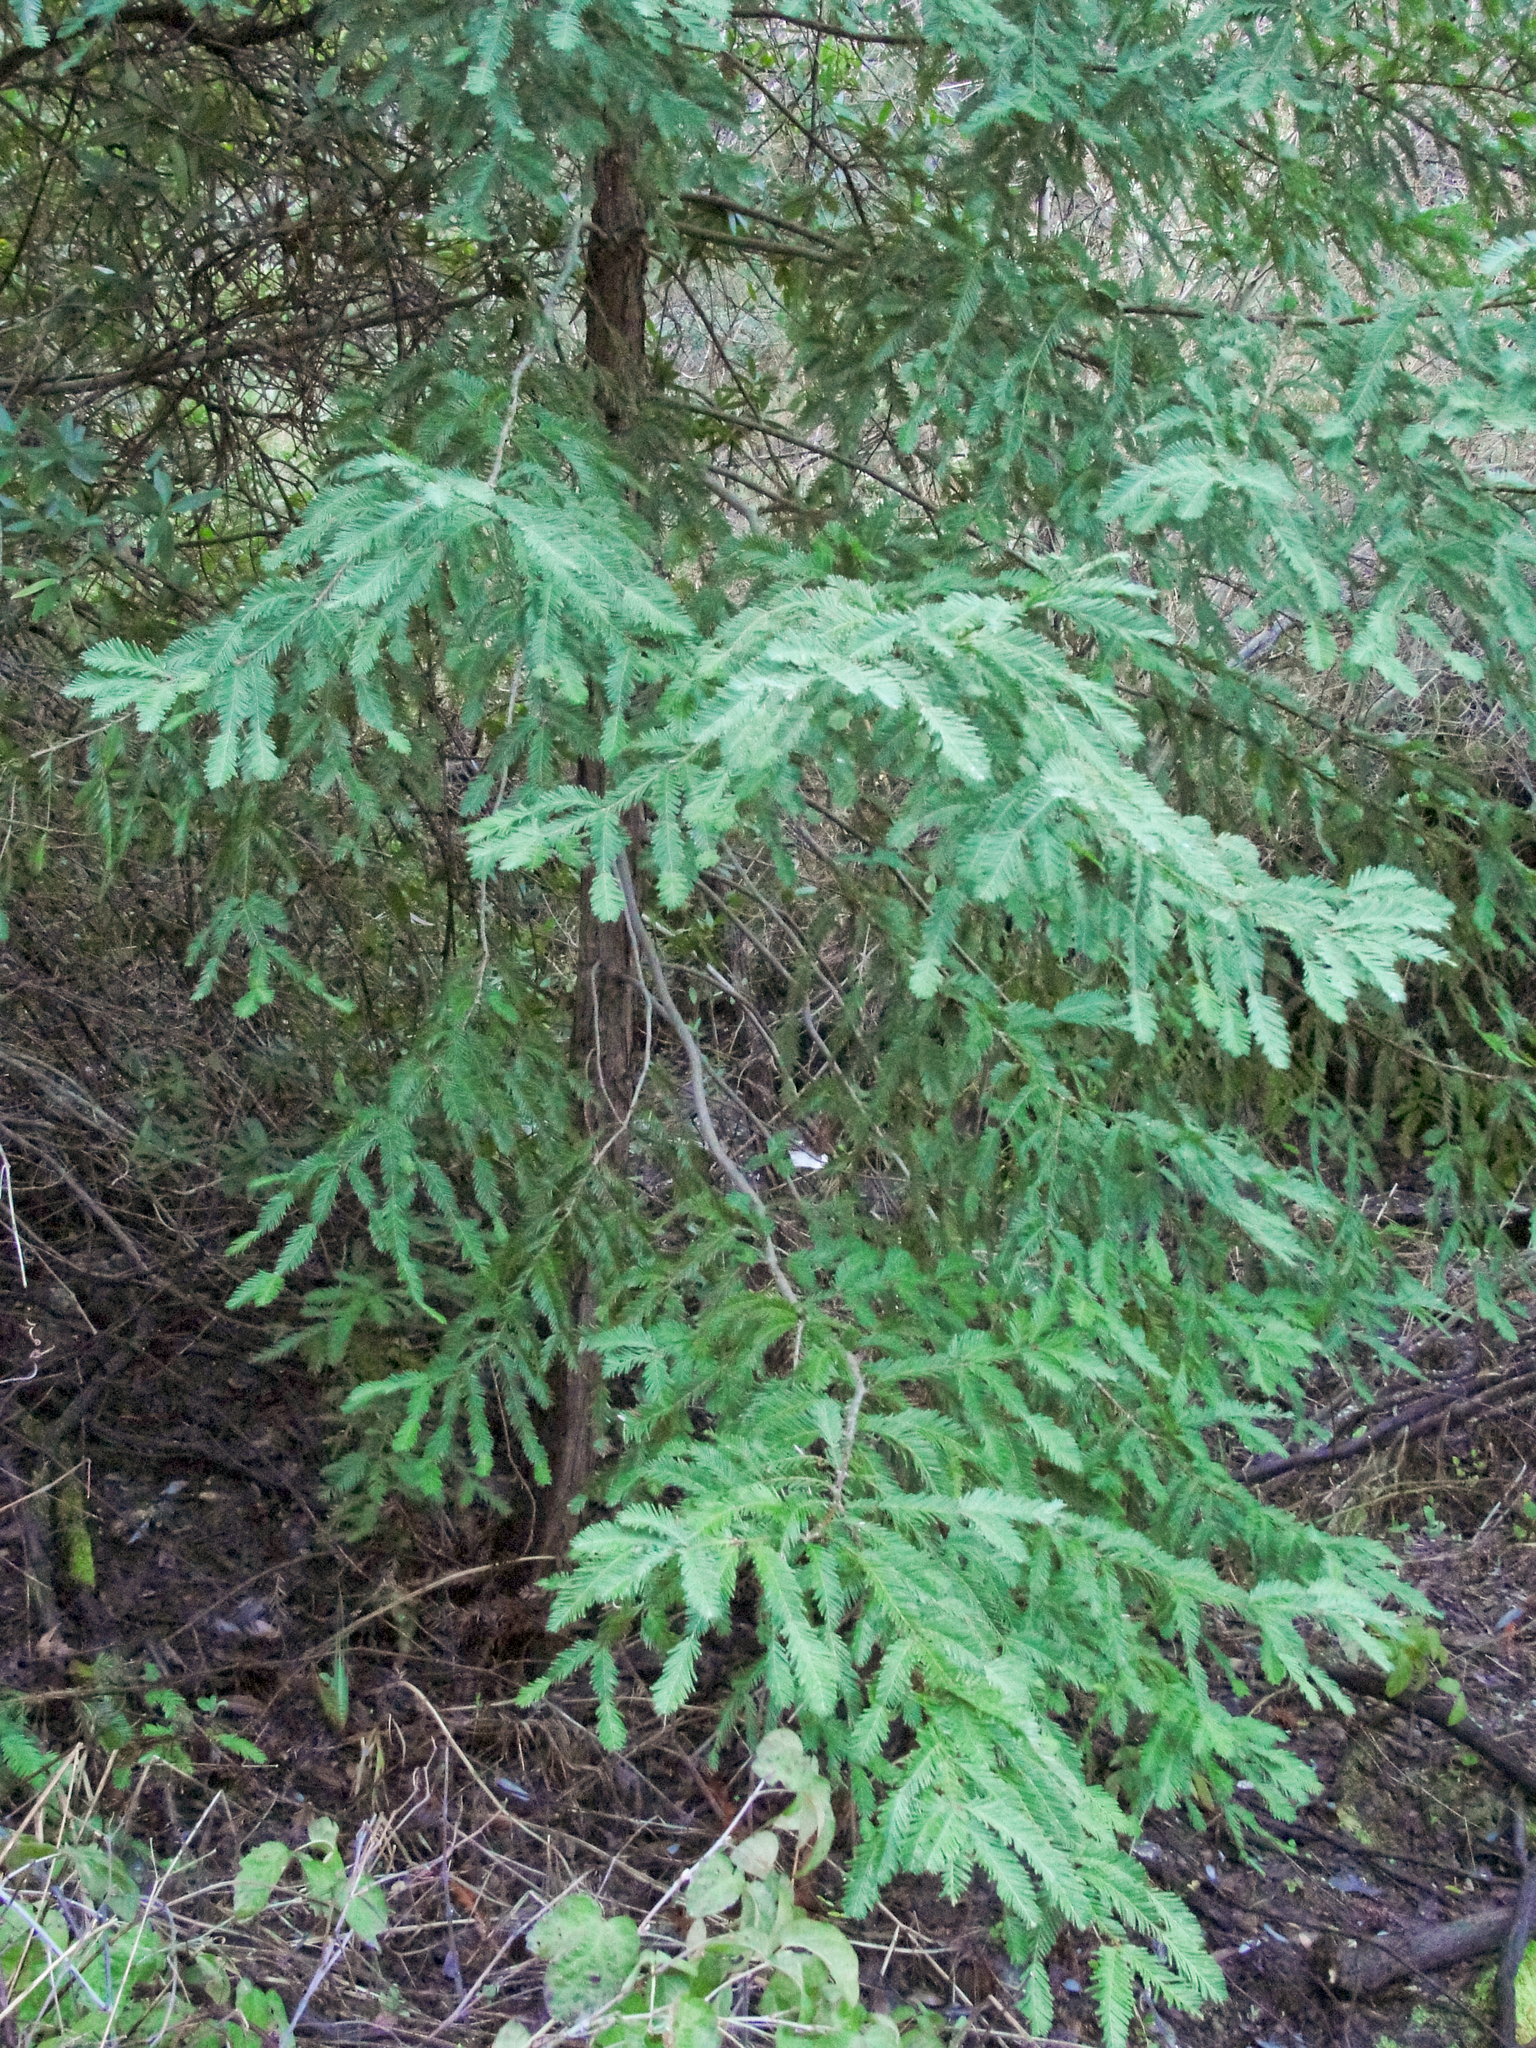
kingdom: Plantae
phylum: Tracheophyta
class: Pinopsida
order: Pinales
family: Cupressaceae
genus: Sequoia
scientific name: Sequoia sempervirens
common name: Coast redwood
